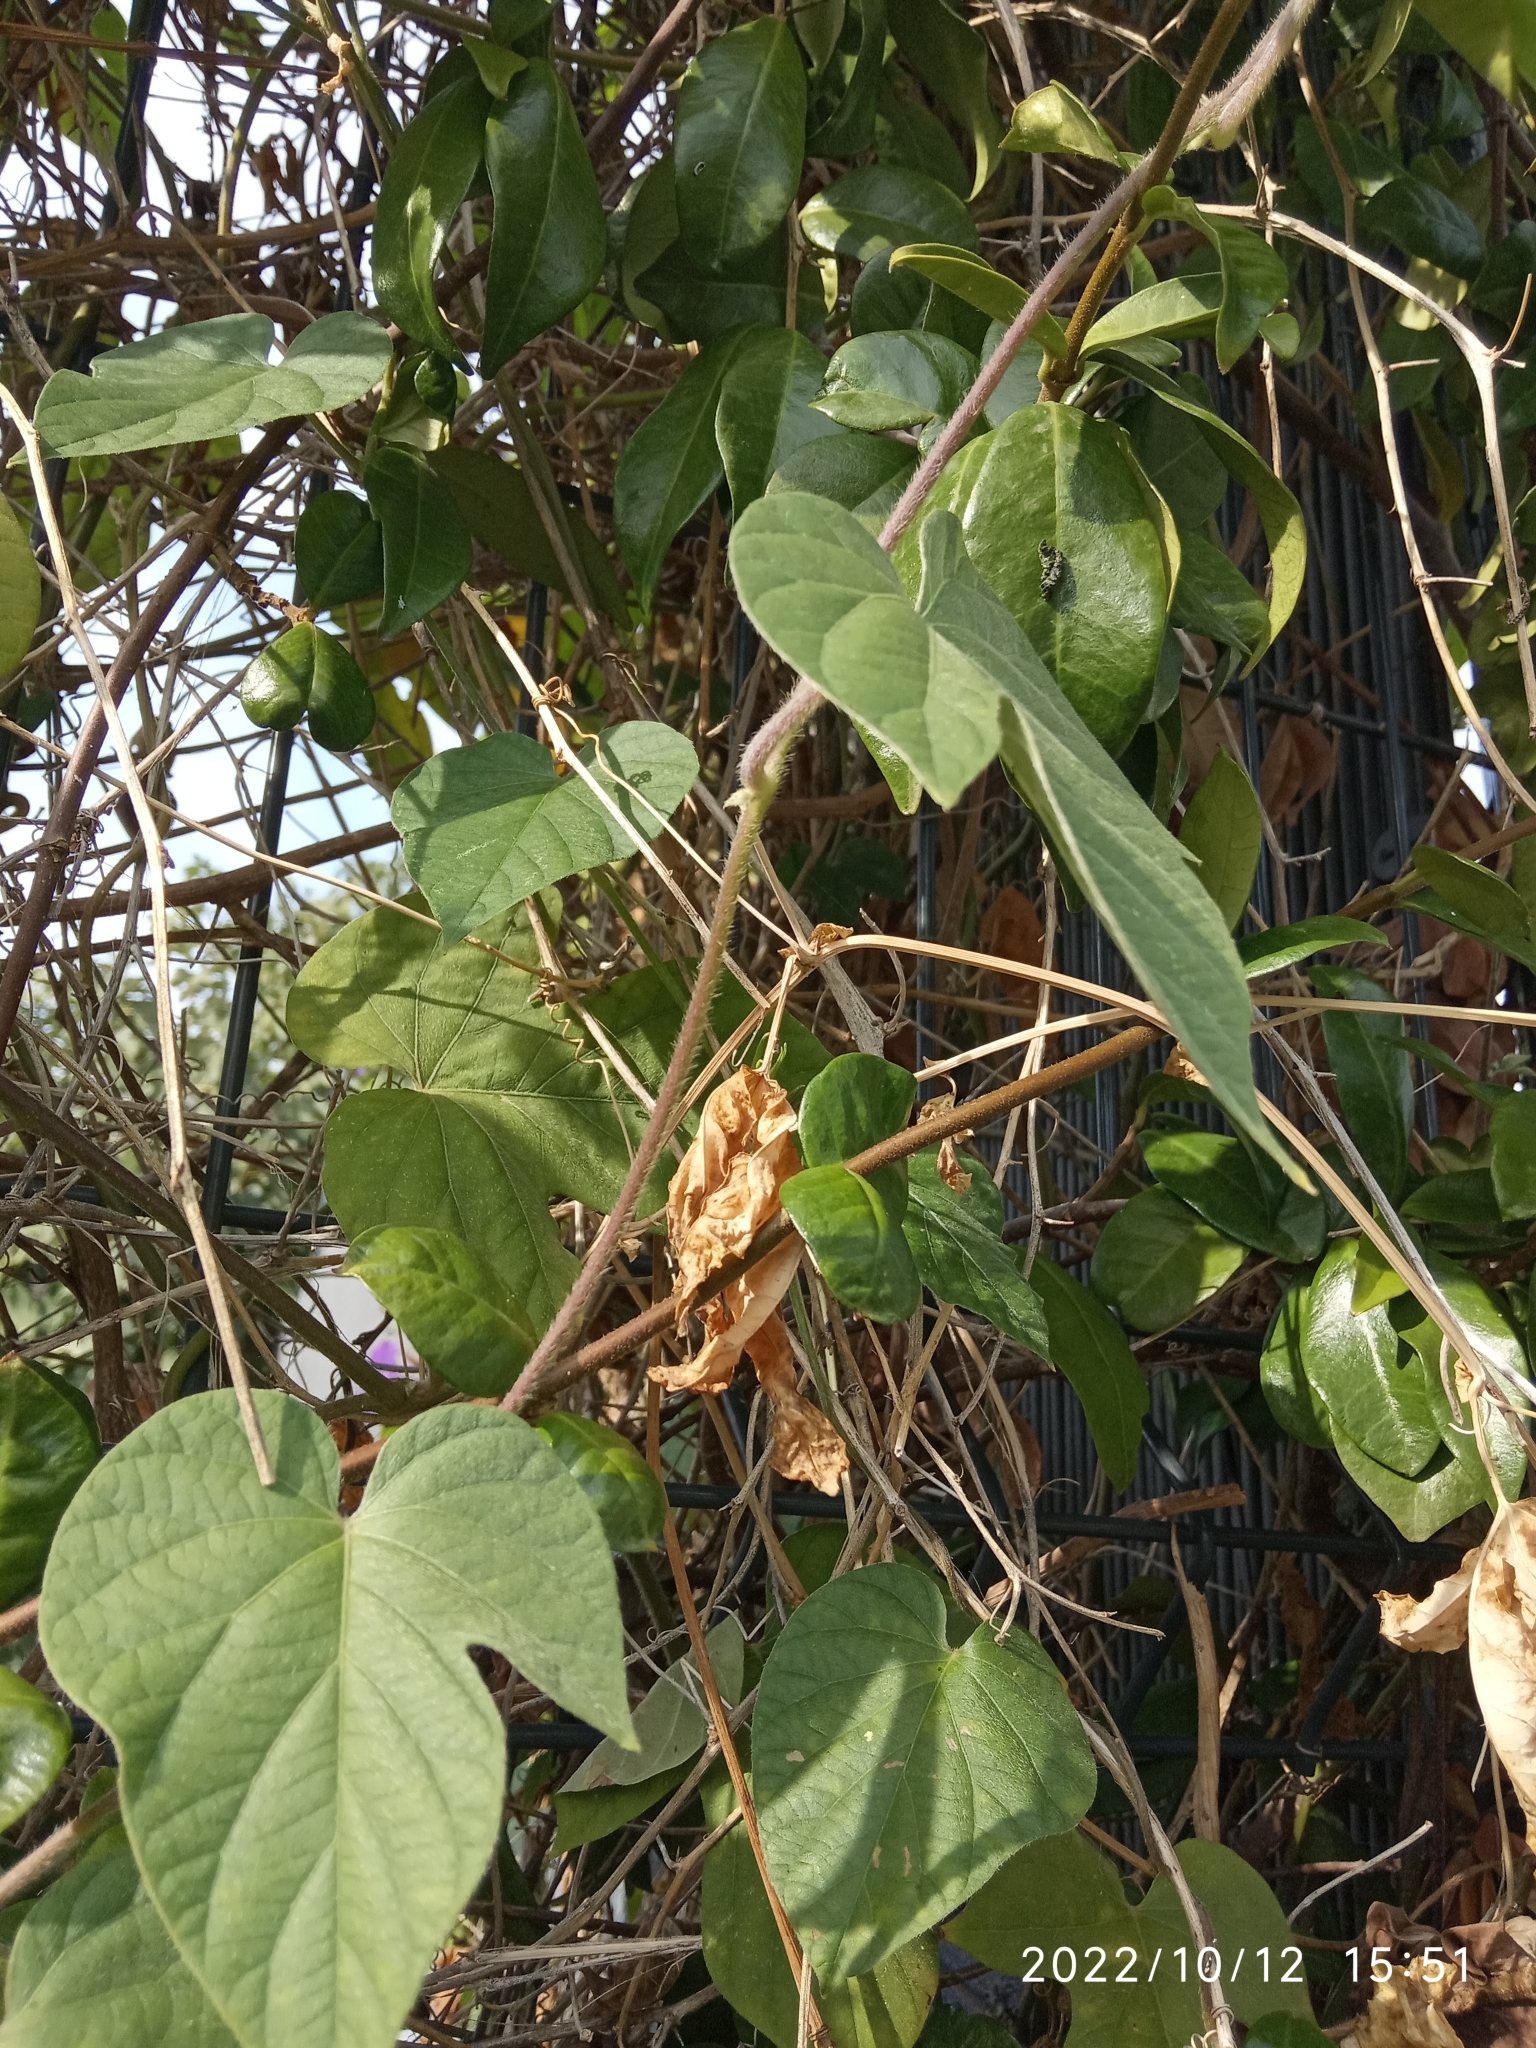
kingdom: Plantae
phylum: Tracheophyta
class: Magnoliopsida
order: Solanales
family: Convolvulaceae
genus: Ipomoea
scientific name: Ipomoea indica
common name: Blue dawnflower
